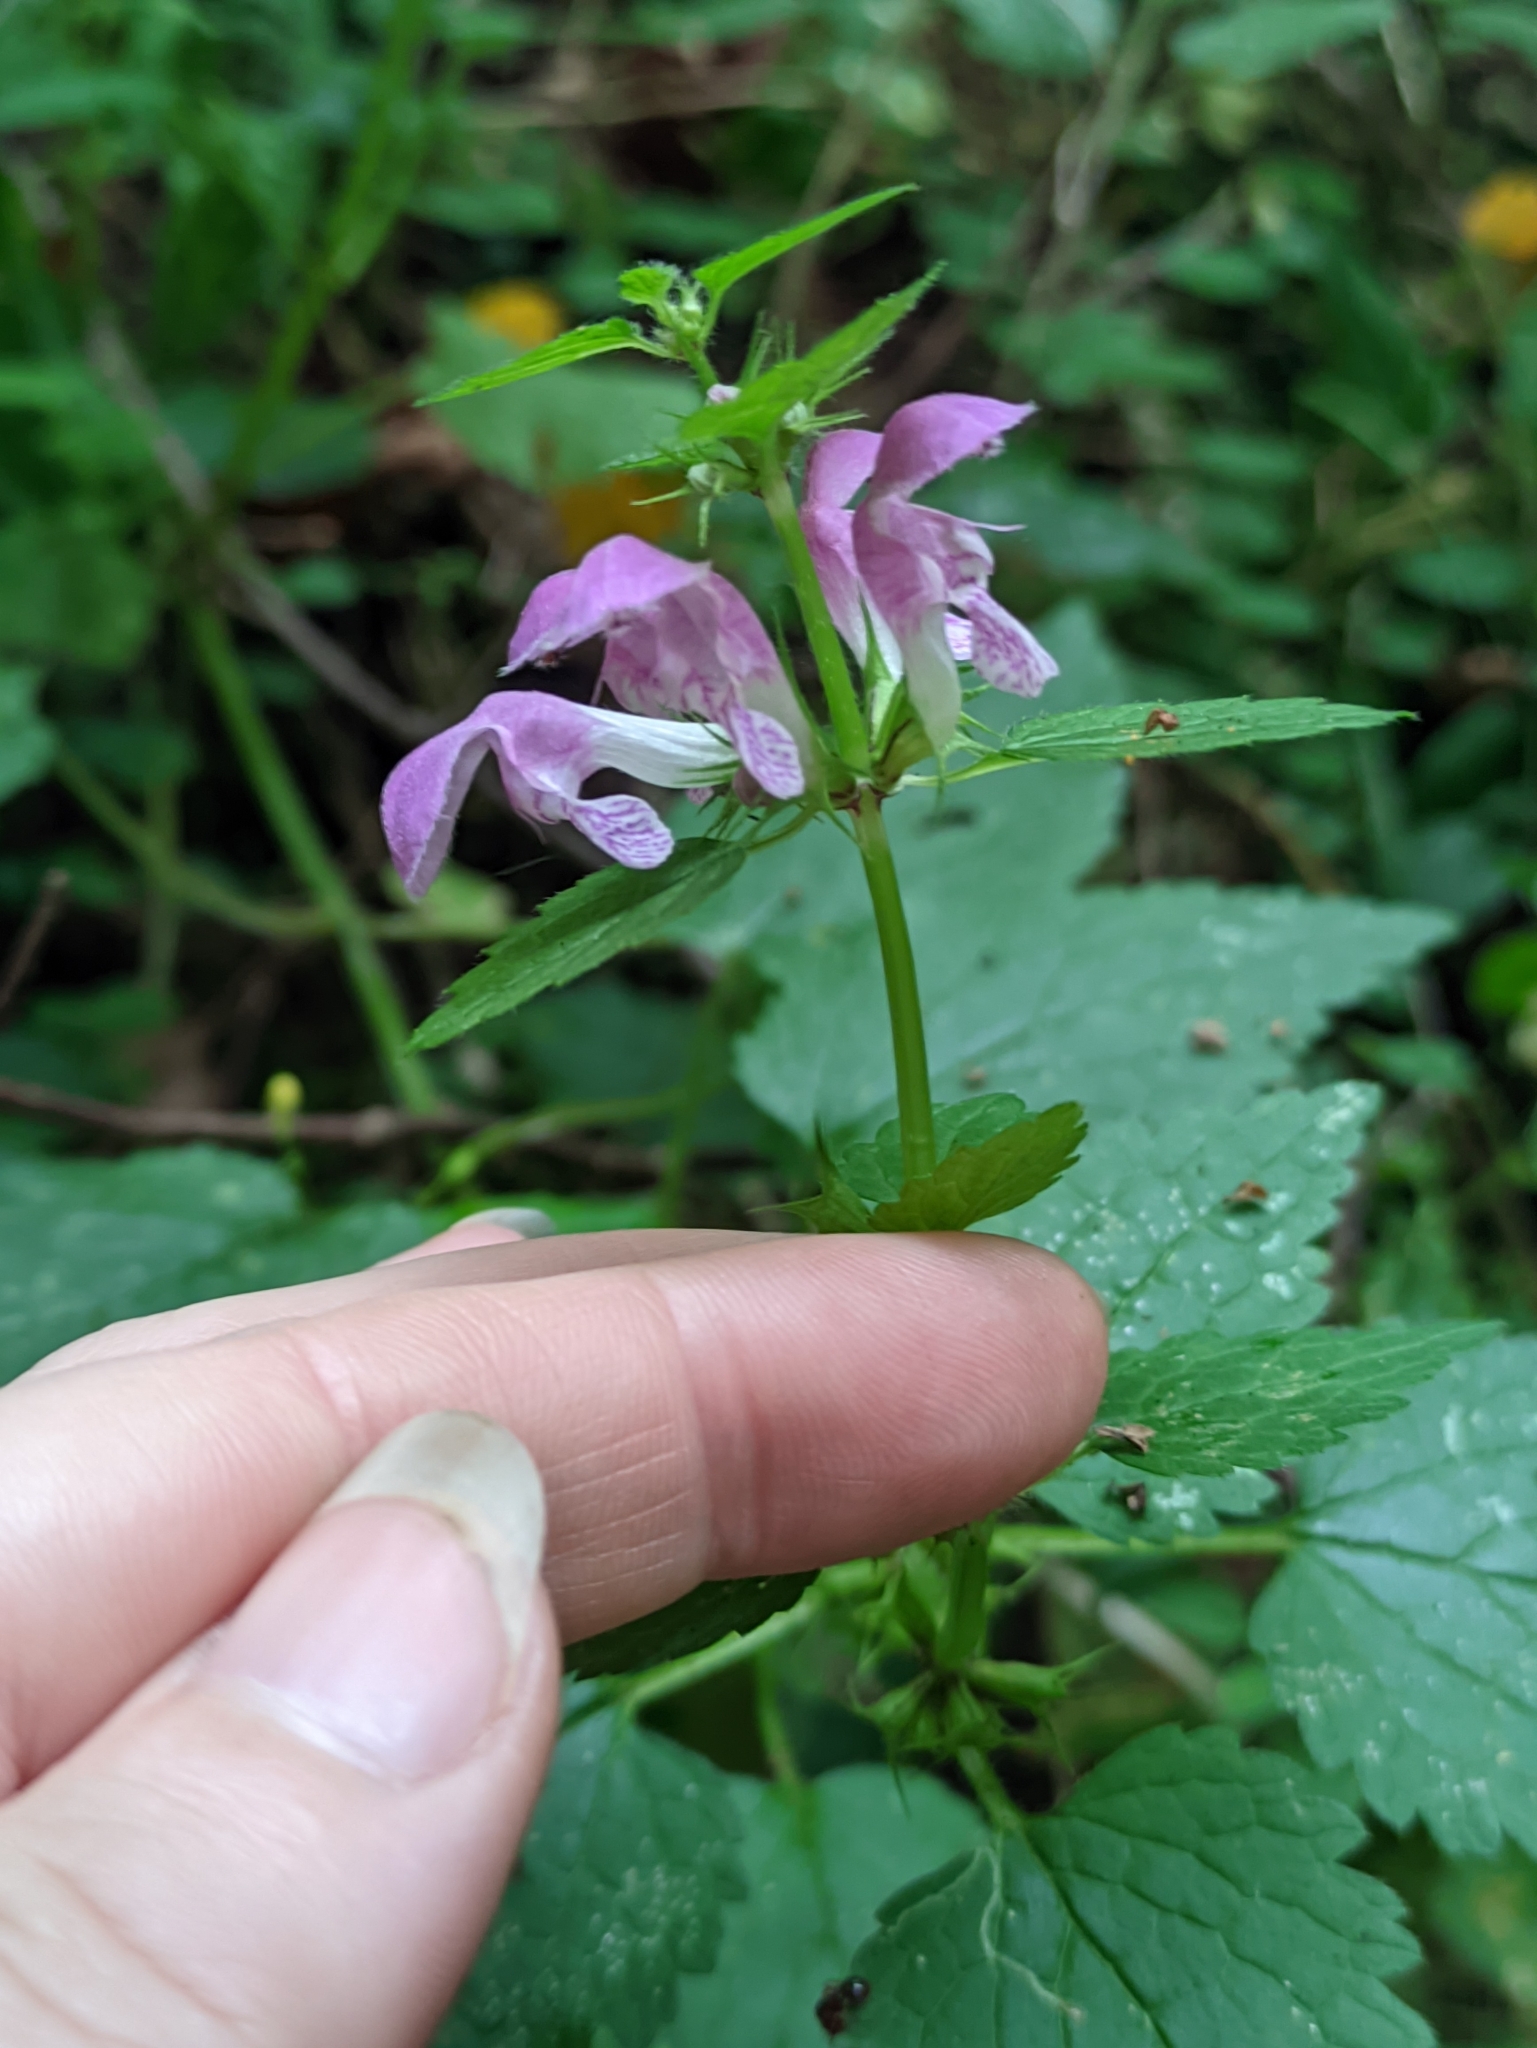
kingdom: Plantae
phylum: Tracheophyta
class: Magnoliopsida
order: Lamiales
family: Lamiaceae
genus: Lamium
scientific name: Lamium maculatum
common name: Spotted dead-nettle
